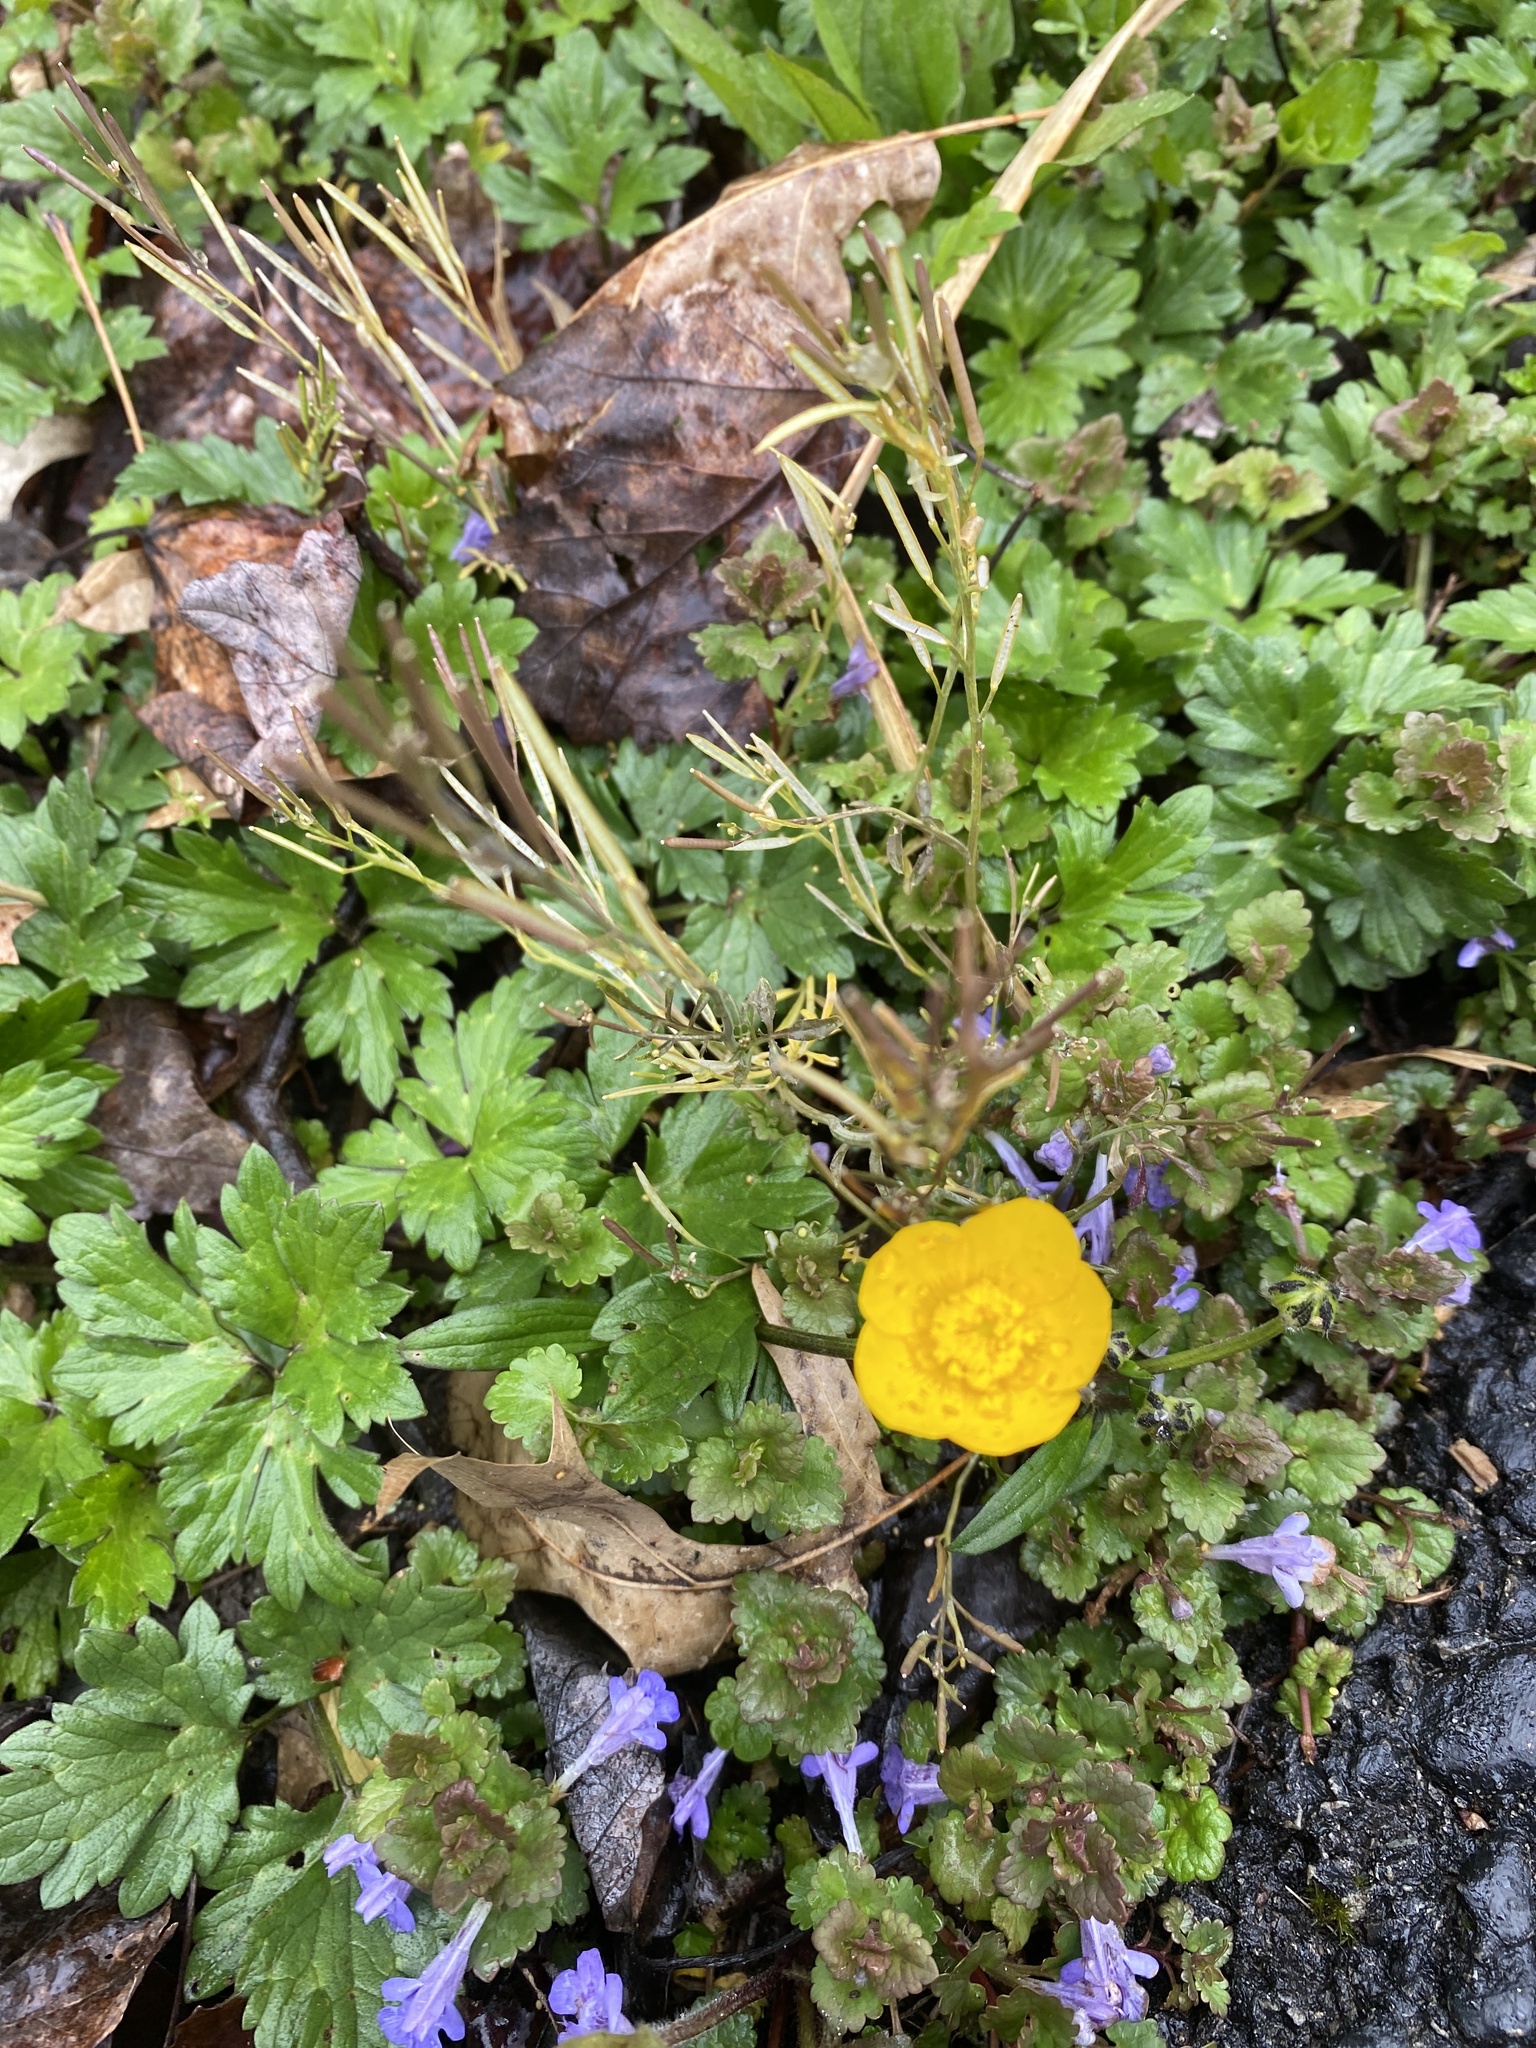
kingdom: Plantae
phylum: Tracheophyta
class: Magnoliopsida
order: Ranunculales
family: Ranunculaceae
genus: Ranunculus
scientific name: Ranunculus repens
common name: Creeping buttercup
